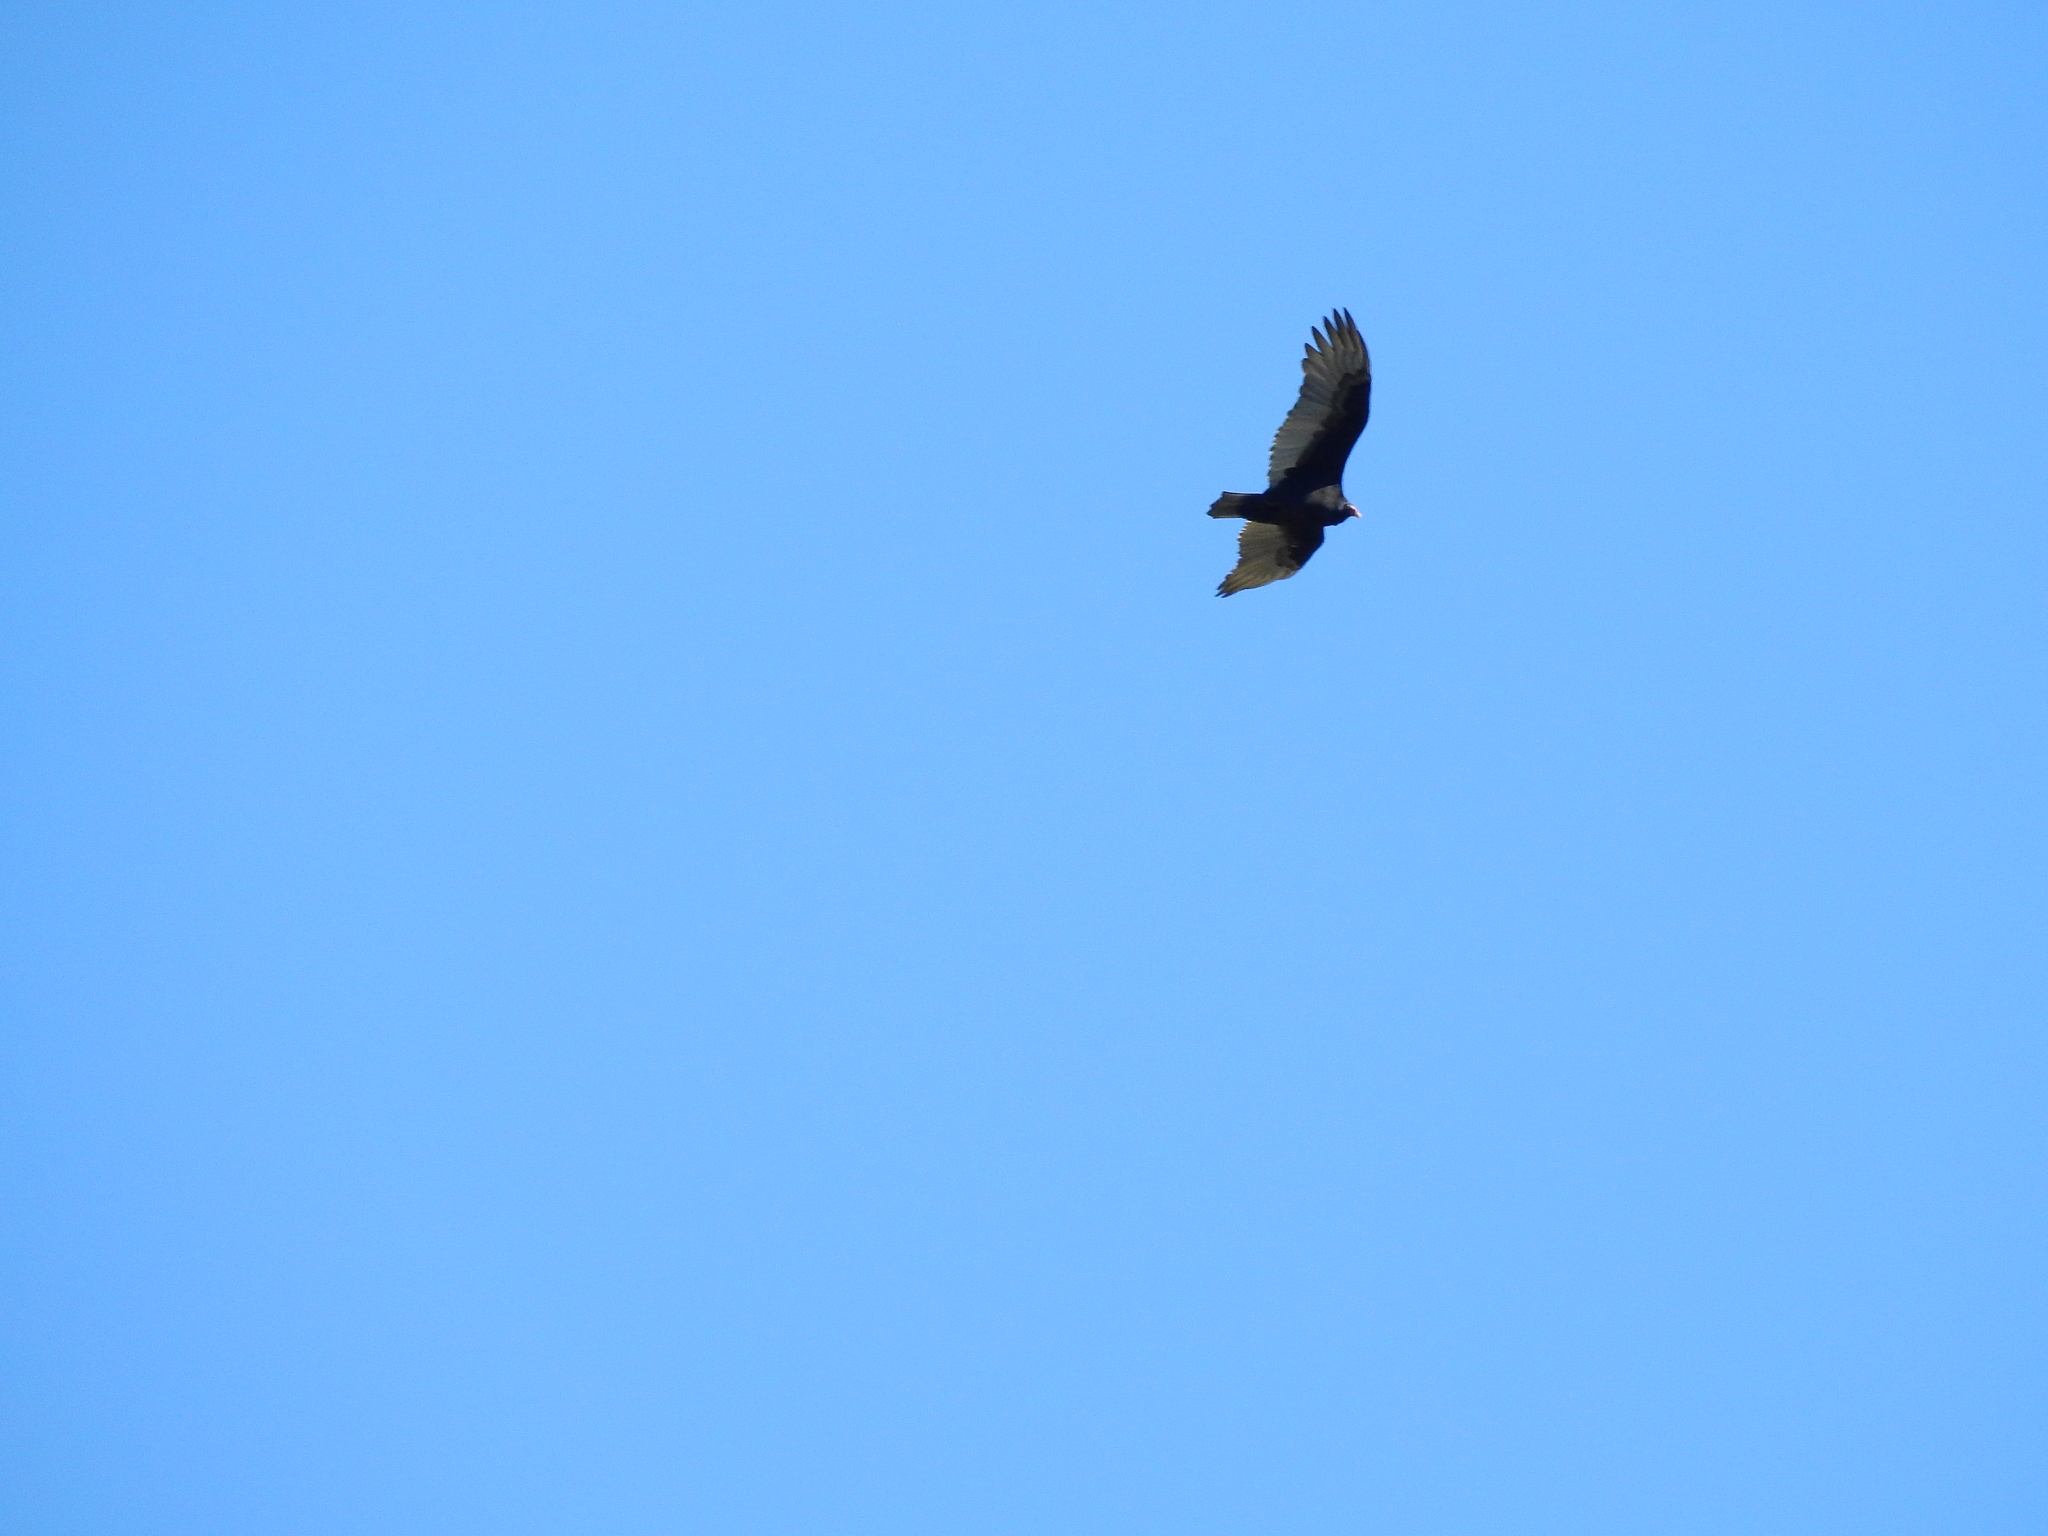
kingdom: Animalia
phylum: Chordata
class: Aves
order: Accipitriformes
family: Cathartidae
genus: Cathartes
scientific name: Cathartes aura
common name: Turkey vulture
